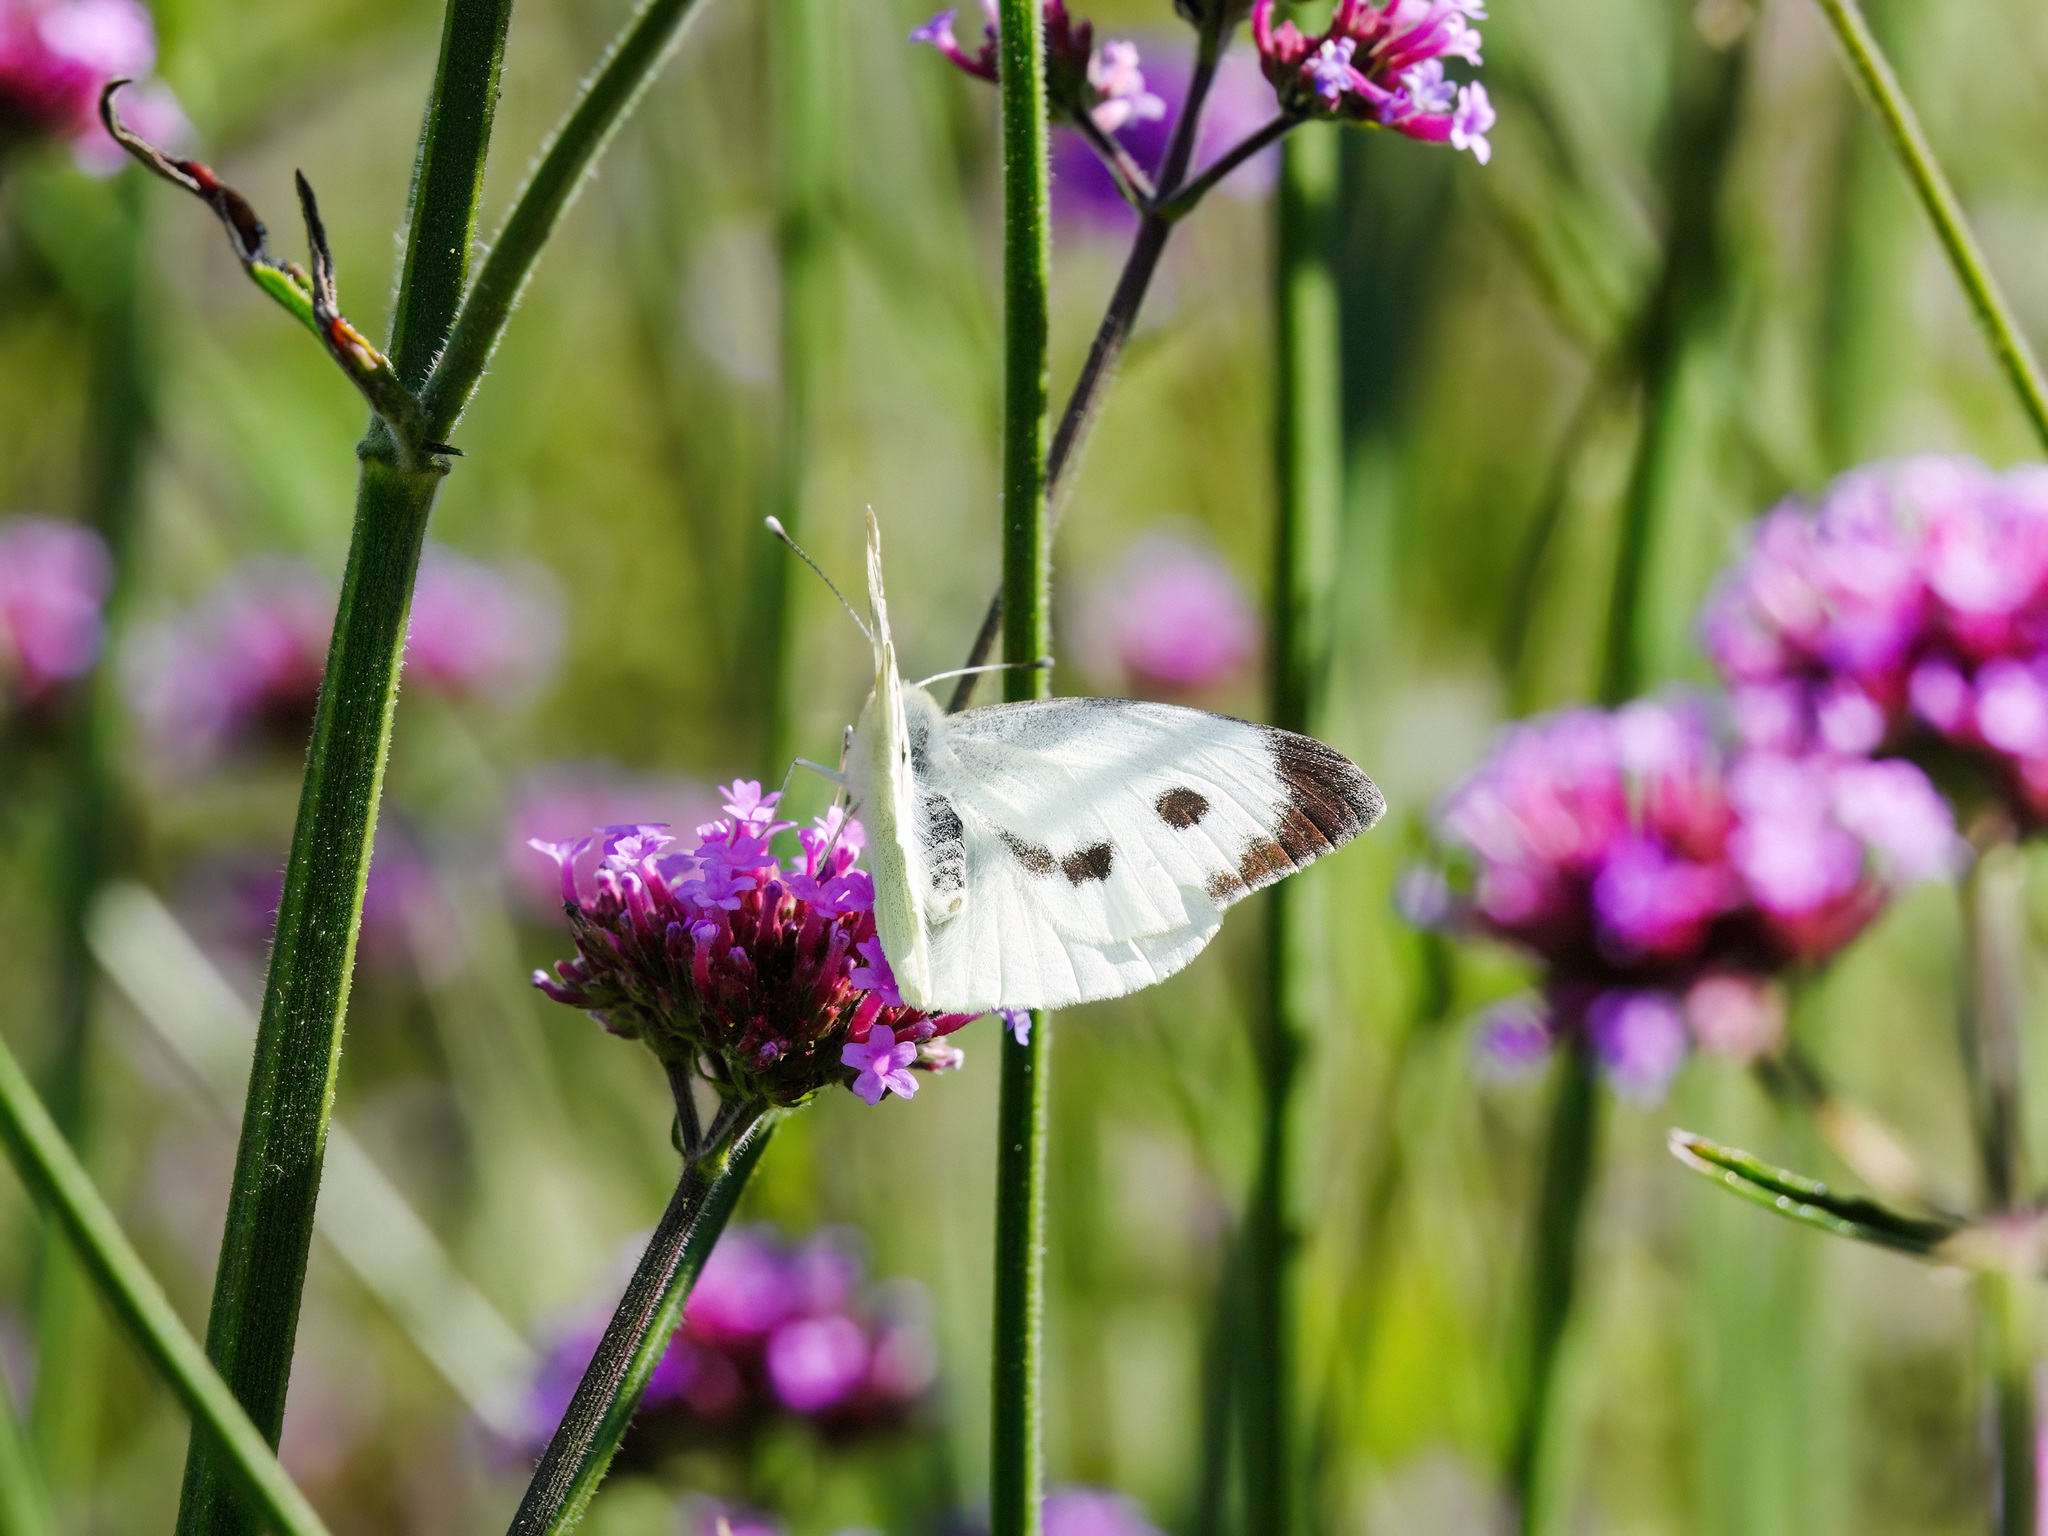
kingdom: Animalia
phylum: Arthropoda
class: Insecta
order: Lepidoptera
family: Pieridae
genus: Pieris
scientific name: Pieris brassicae
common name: Large white
